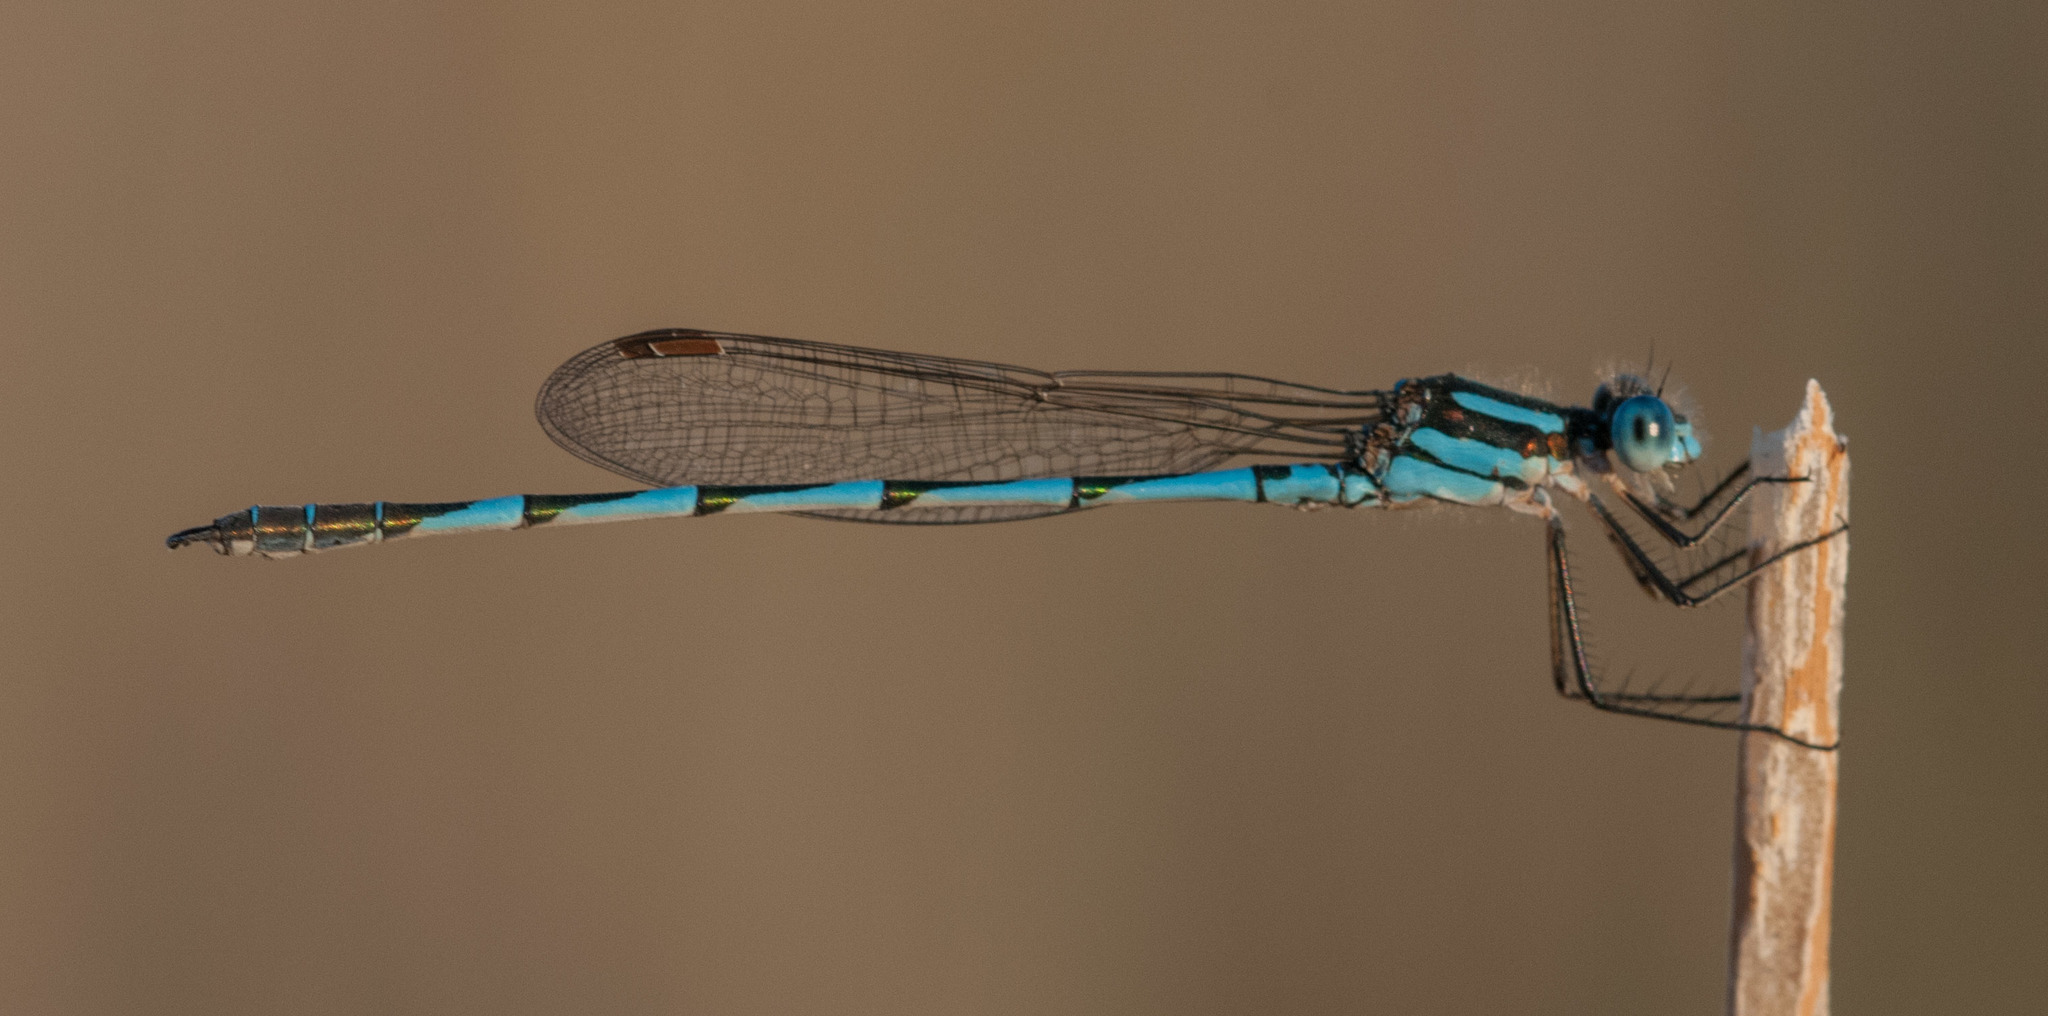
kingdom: Animalia
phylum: Arthropoda
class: Insecta
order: Odonata
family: Lestidae
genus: Austrolestes
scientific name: Austrolestes annulosus
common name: Blue ringtail
